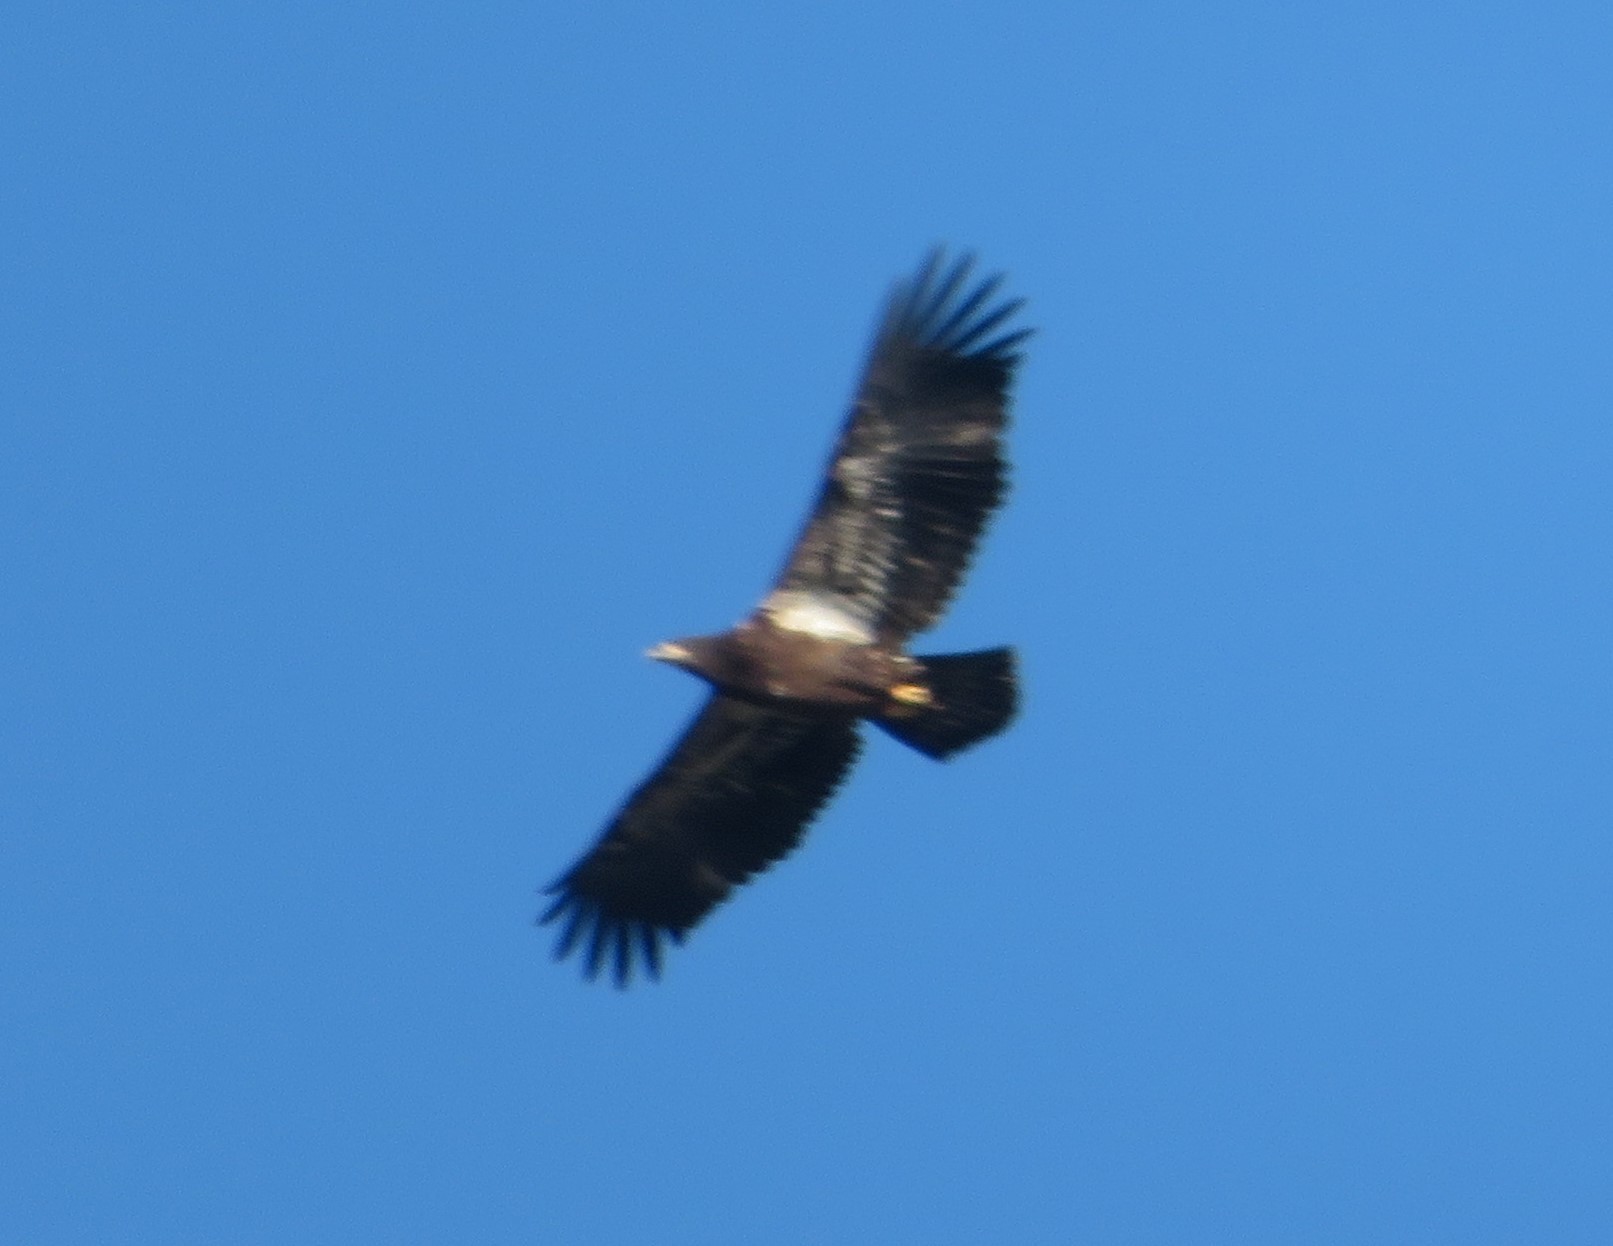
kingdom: Animalia
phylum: Chordata
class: Aves
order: Accipitriformes
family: Accipitridae
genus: Haliaeetus
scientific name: Haliaeetus leucocephalus
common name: Bald eagle
